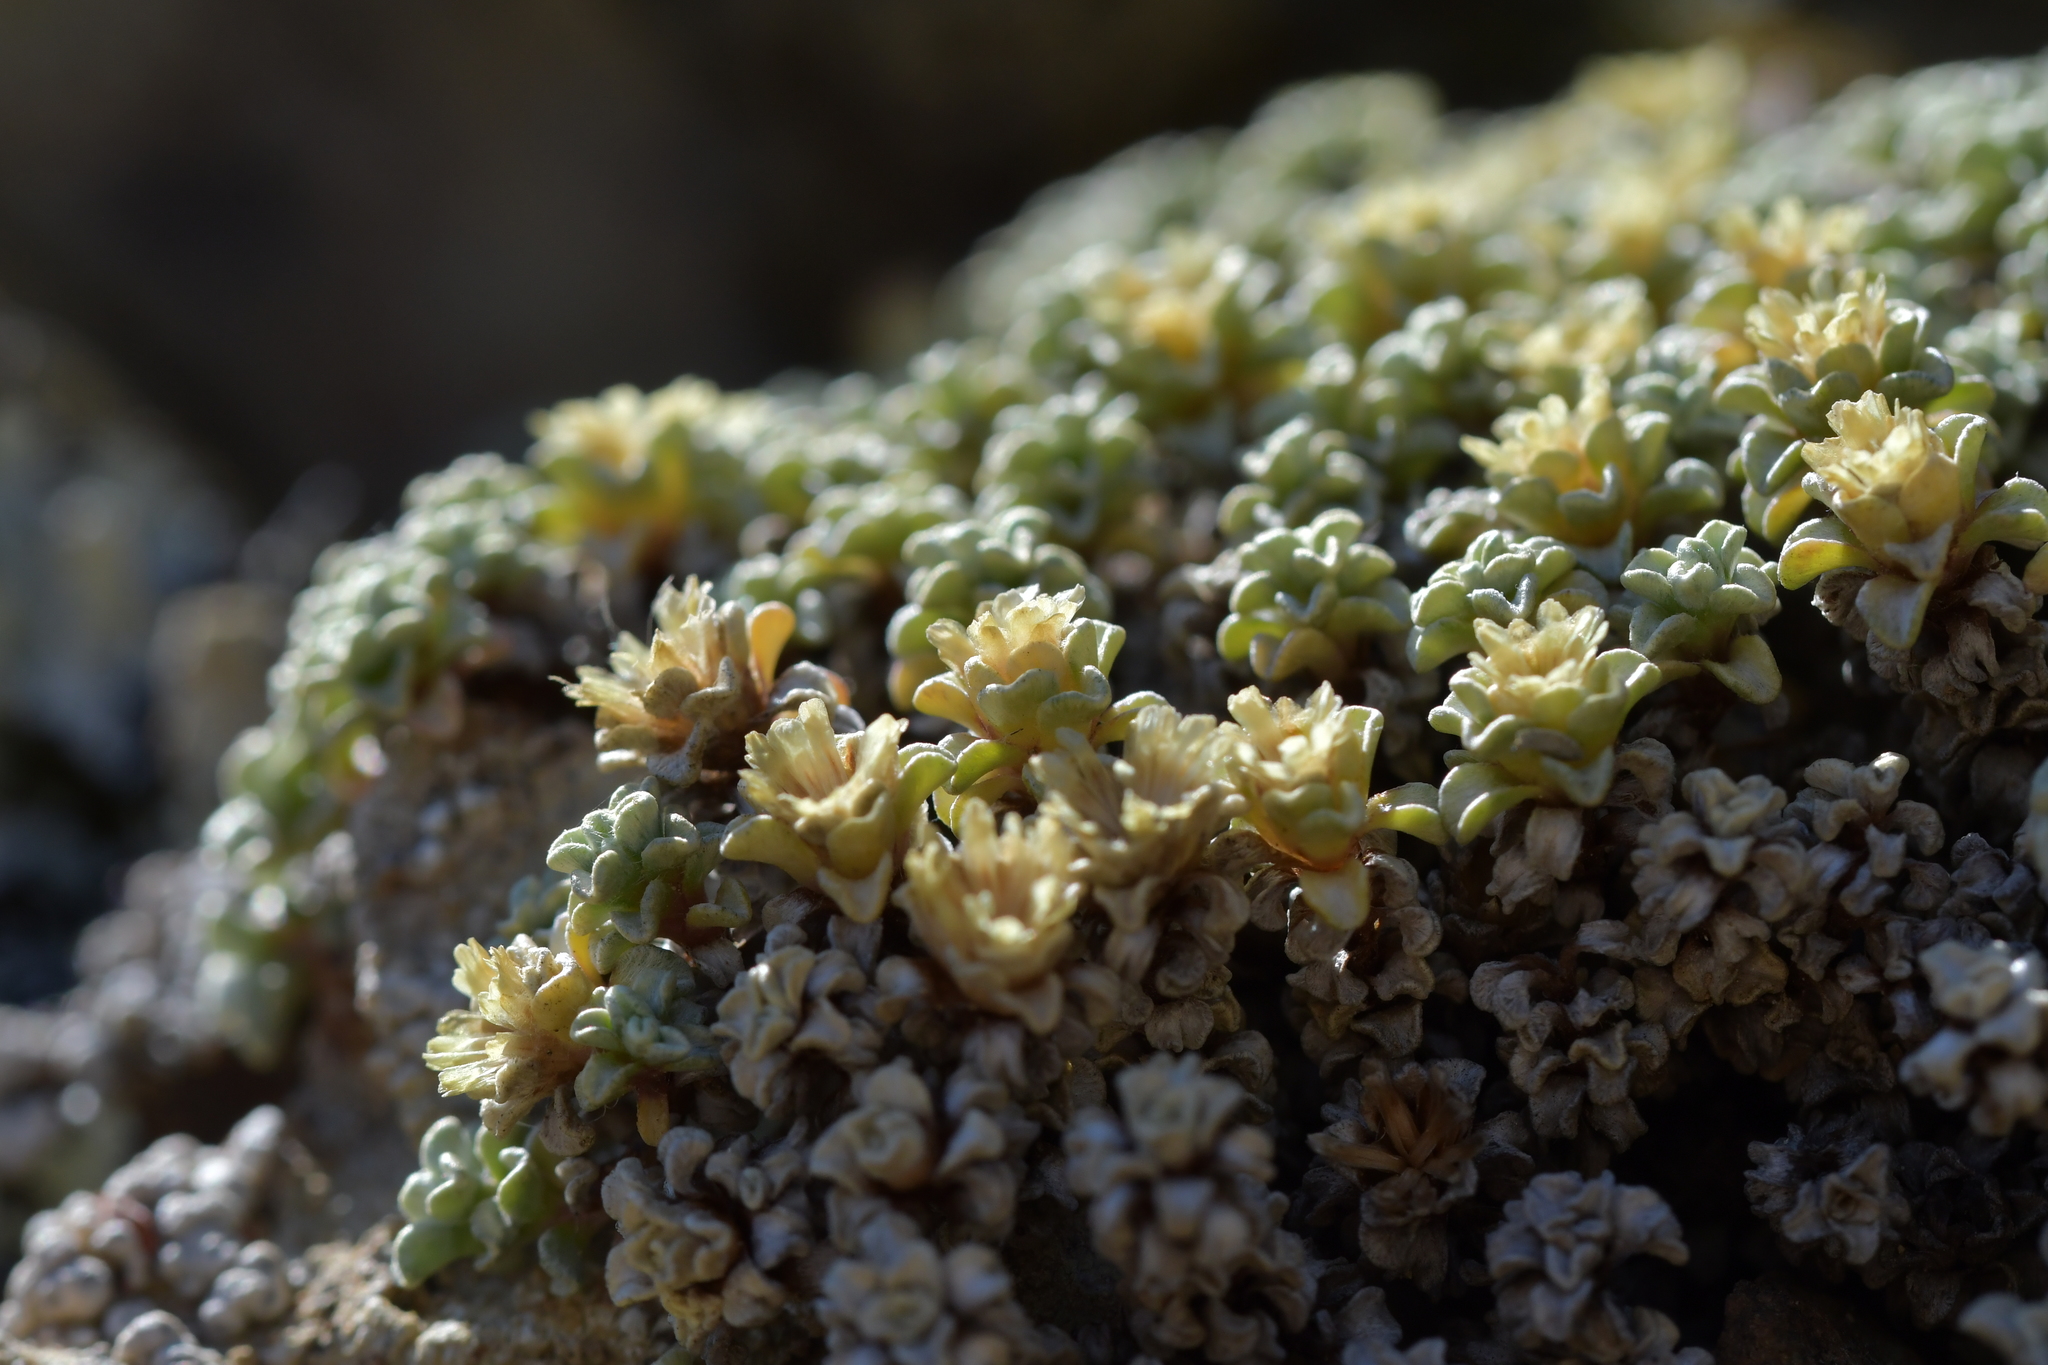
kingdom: Plantae
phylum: Tracheophyta
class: Magnoliopsida
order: Asterales
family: Asteraceae
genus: Raoulia
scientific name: Raoulia hookeri
